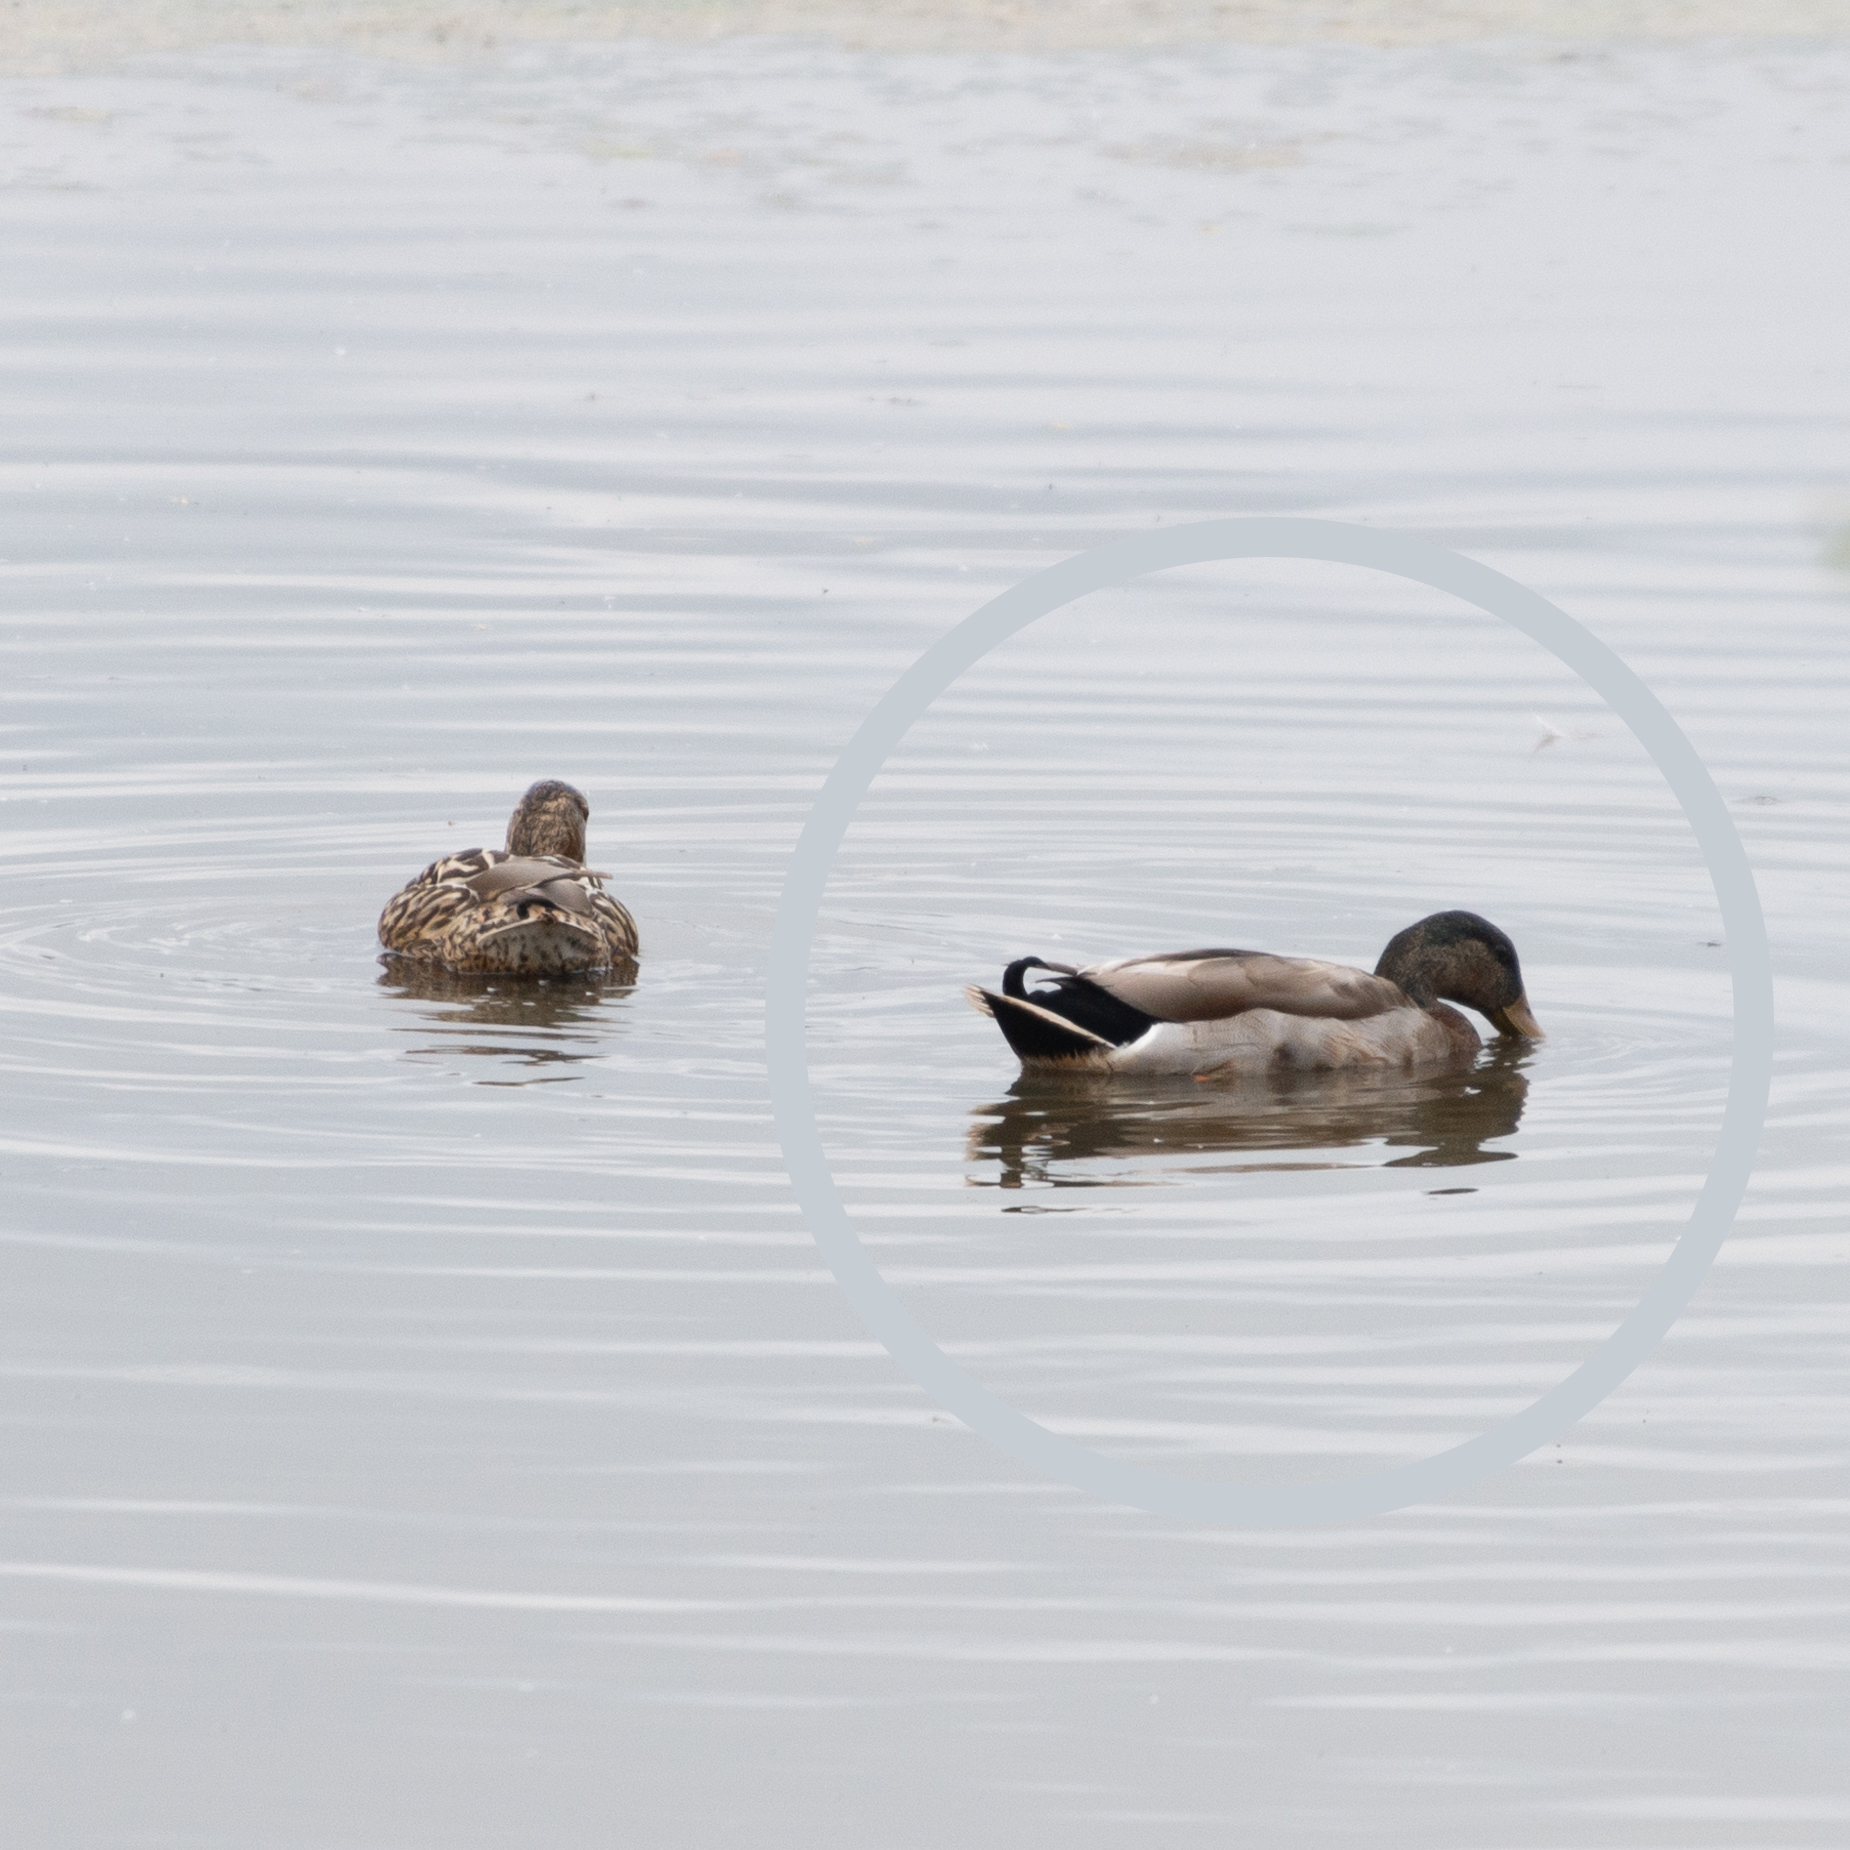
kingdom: Animalia
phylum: Chordata
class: Aves
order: Anseriformes
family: Anatidae
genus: Anas
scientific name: Anas platyrhynchos
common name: Mallard
